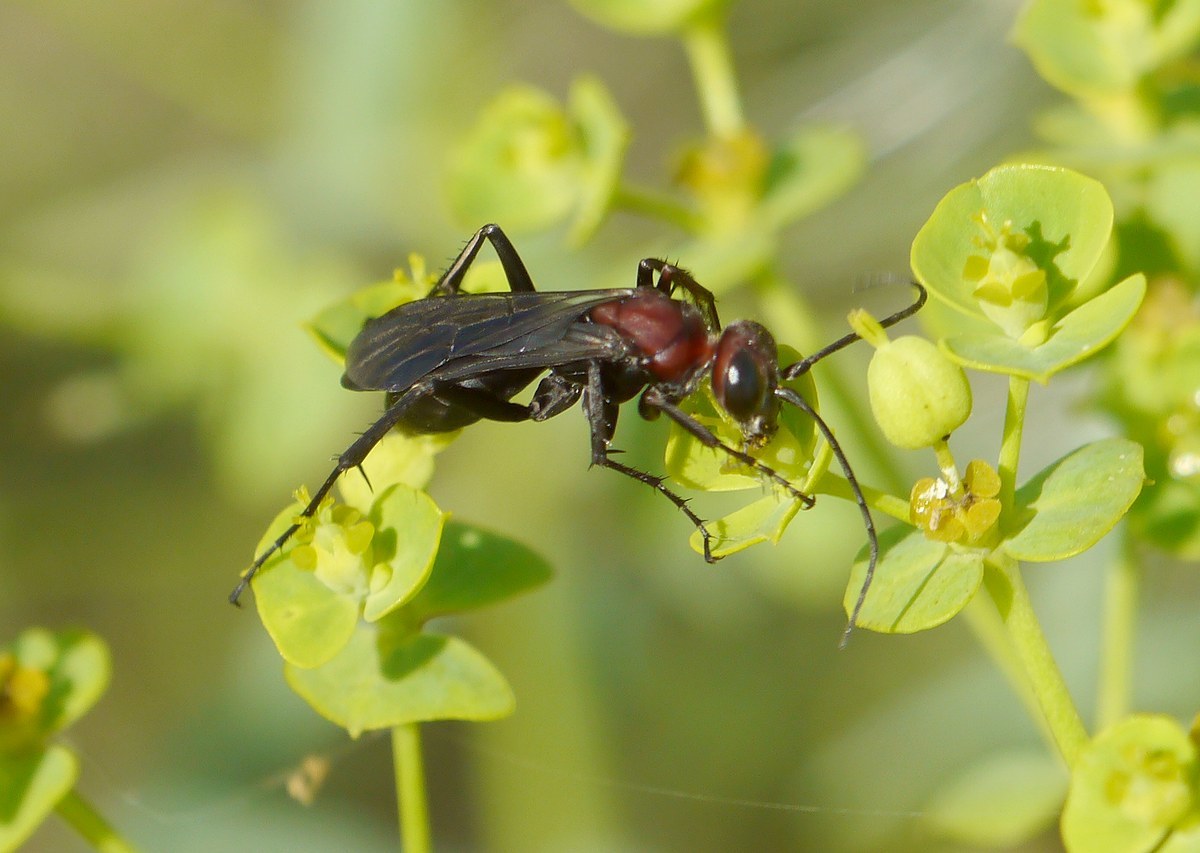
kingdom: Animalia
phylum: Arthropoda
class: Insecta
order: Hymenoptera
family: Pompilidae
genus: Agenioideus
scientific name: Agenioideus dichrous
